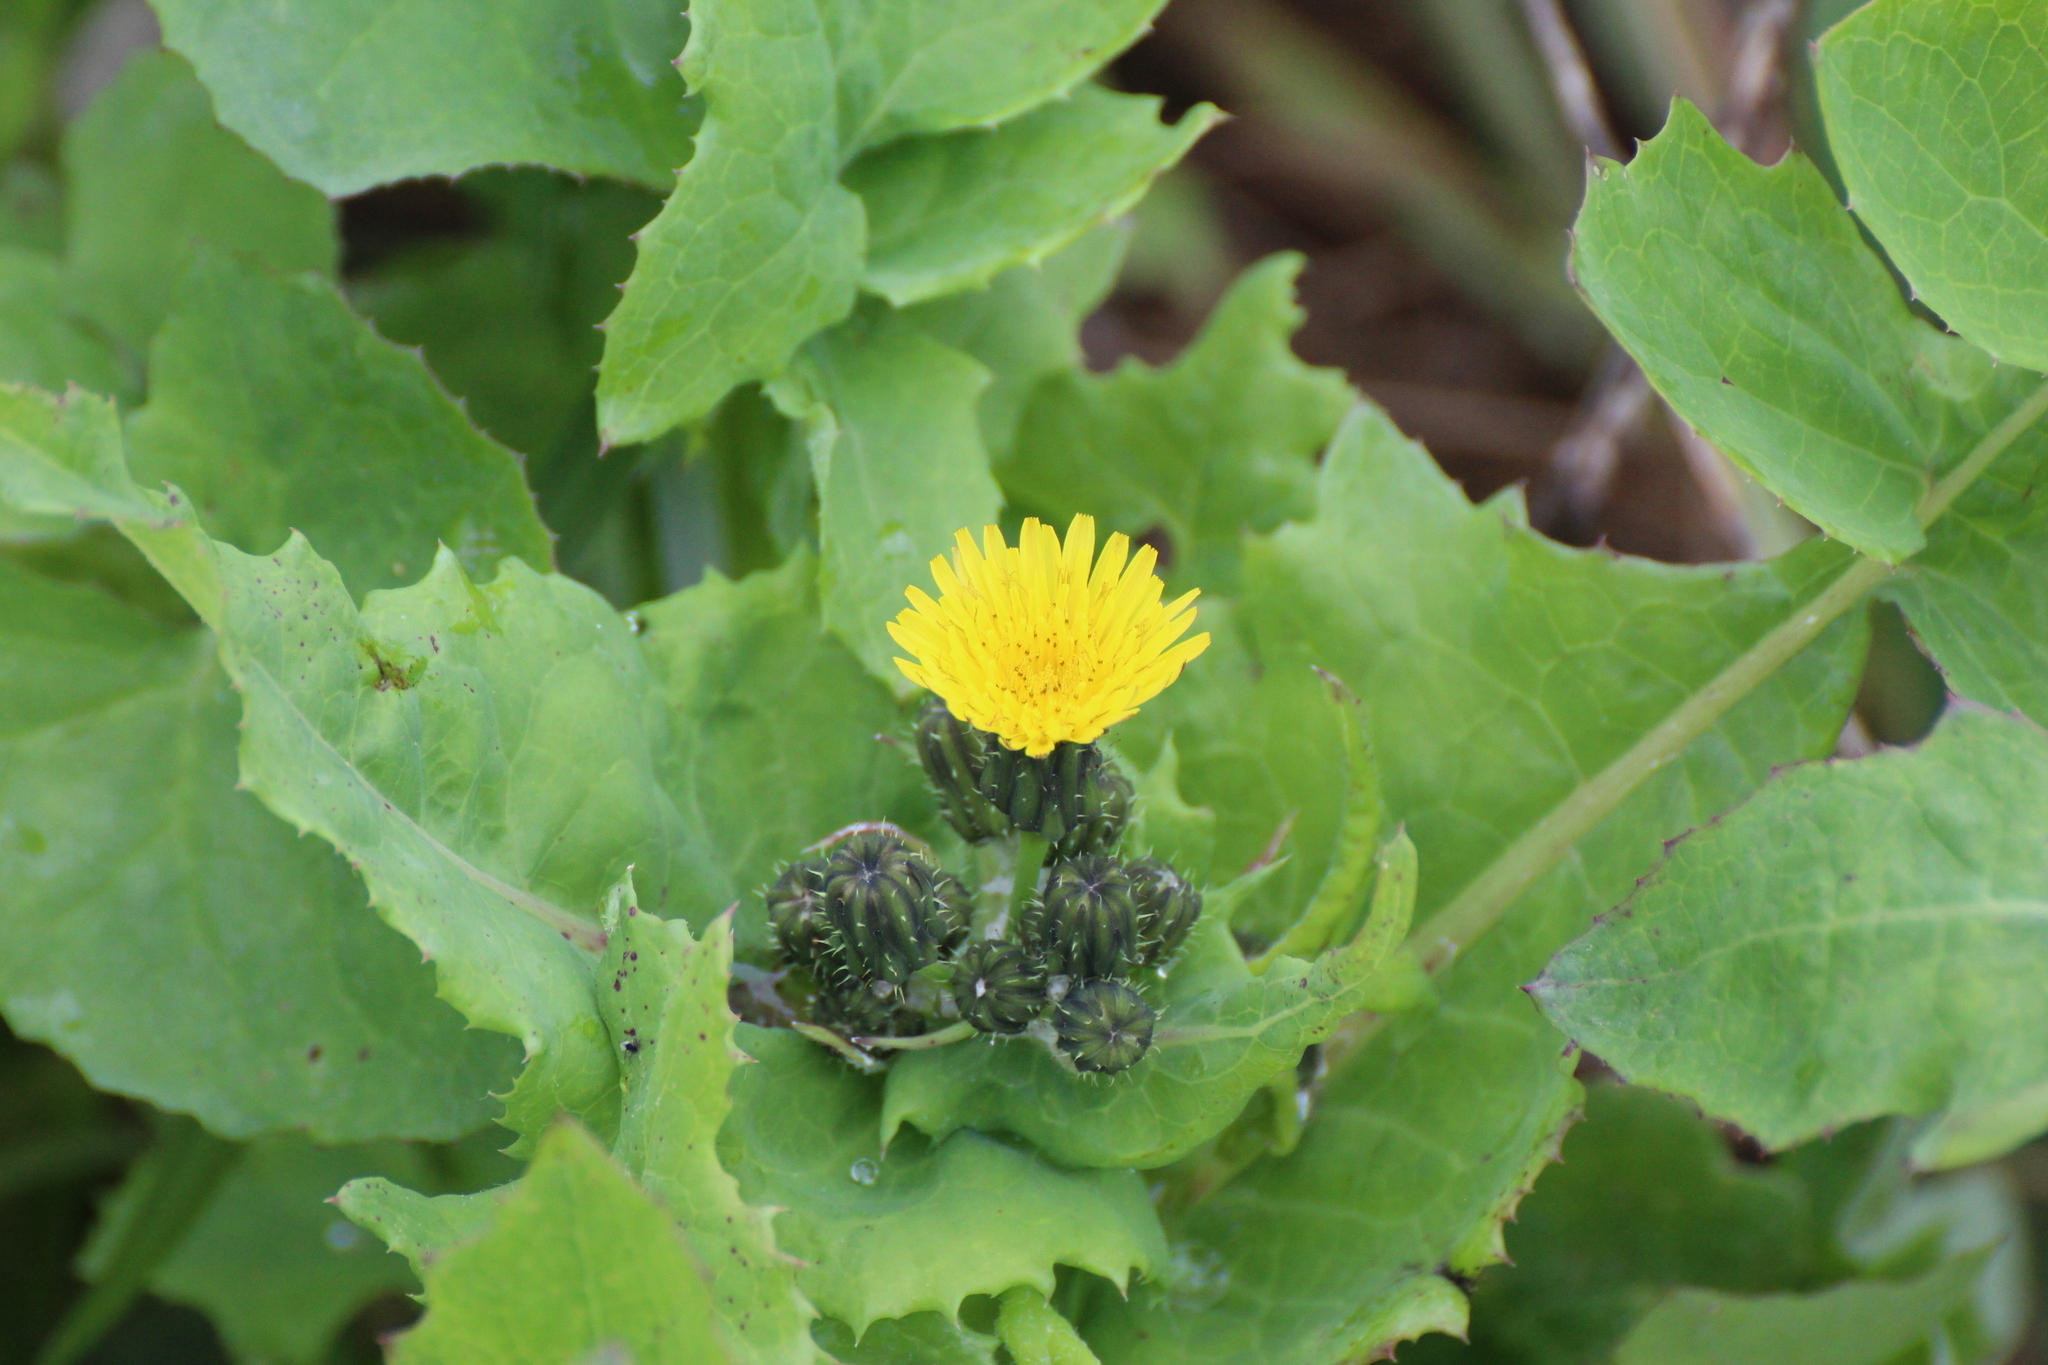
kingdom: Plantae
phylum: Tracheophyta
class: Magnoliopsida
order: Asterales
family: Asteraceae
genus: Sonchus
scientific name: Sonchus oleraceus
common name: Common sowthistle
